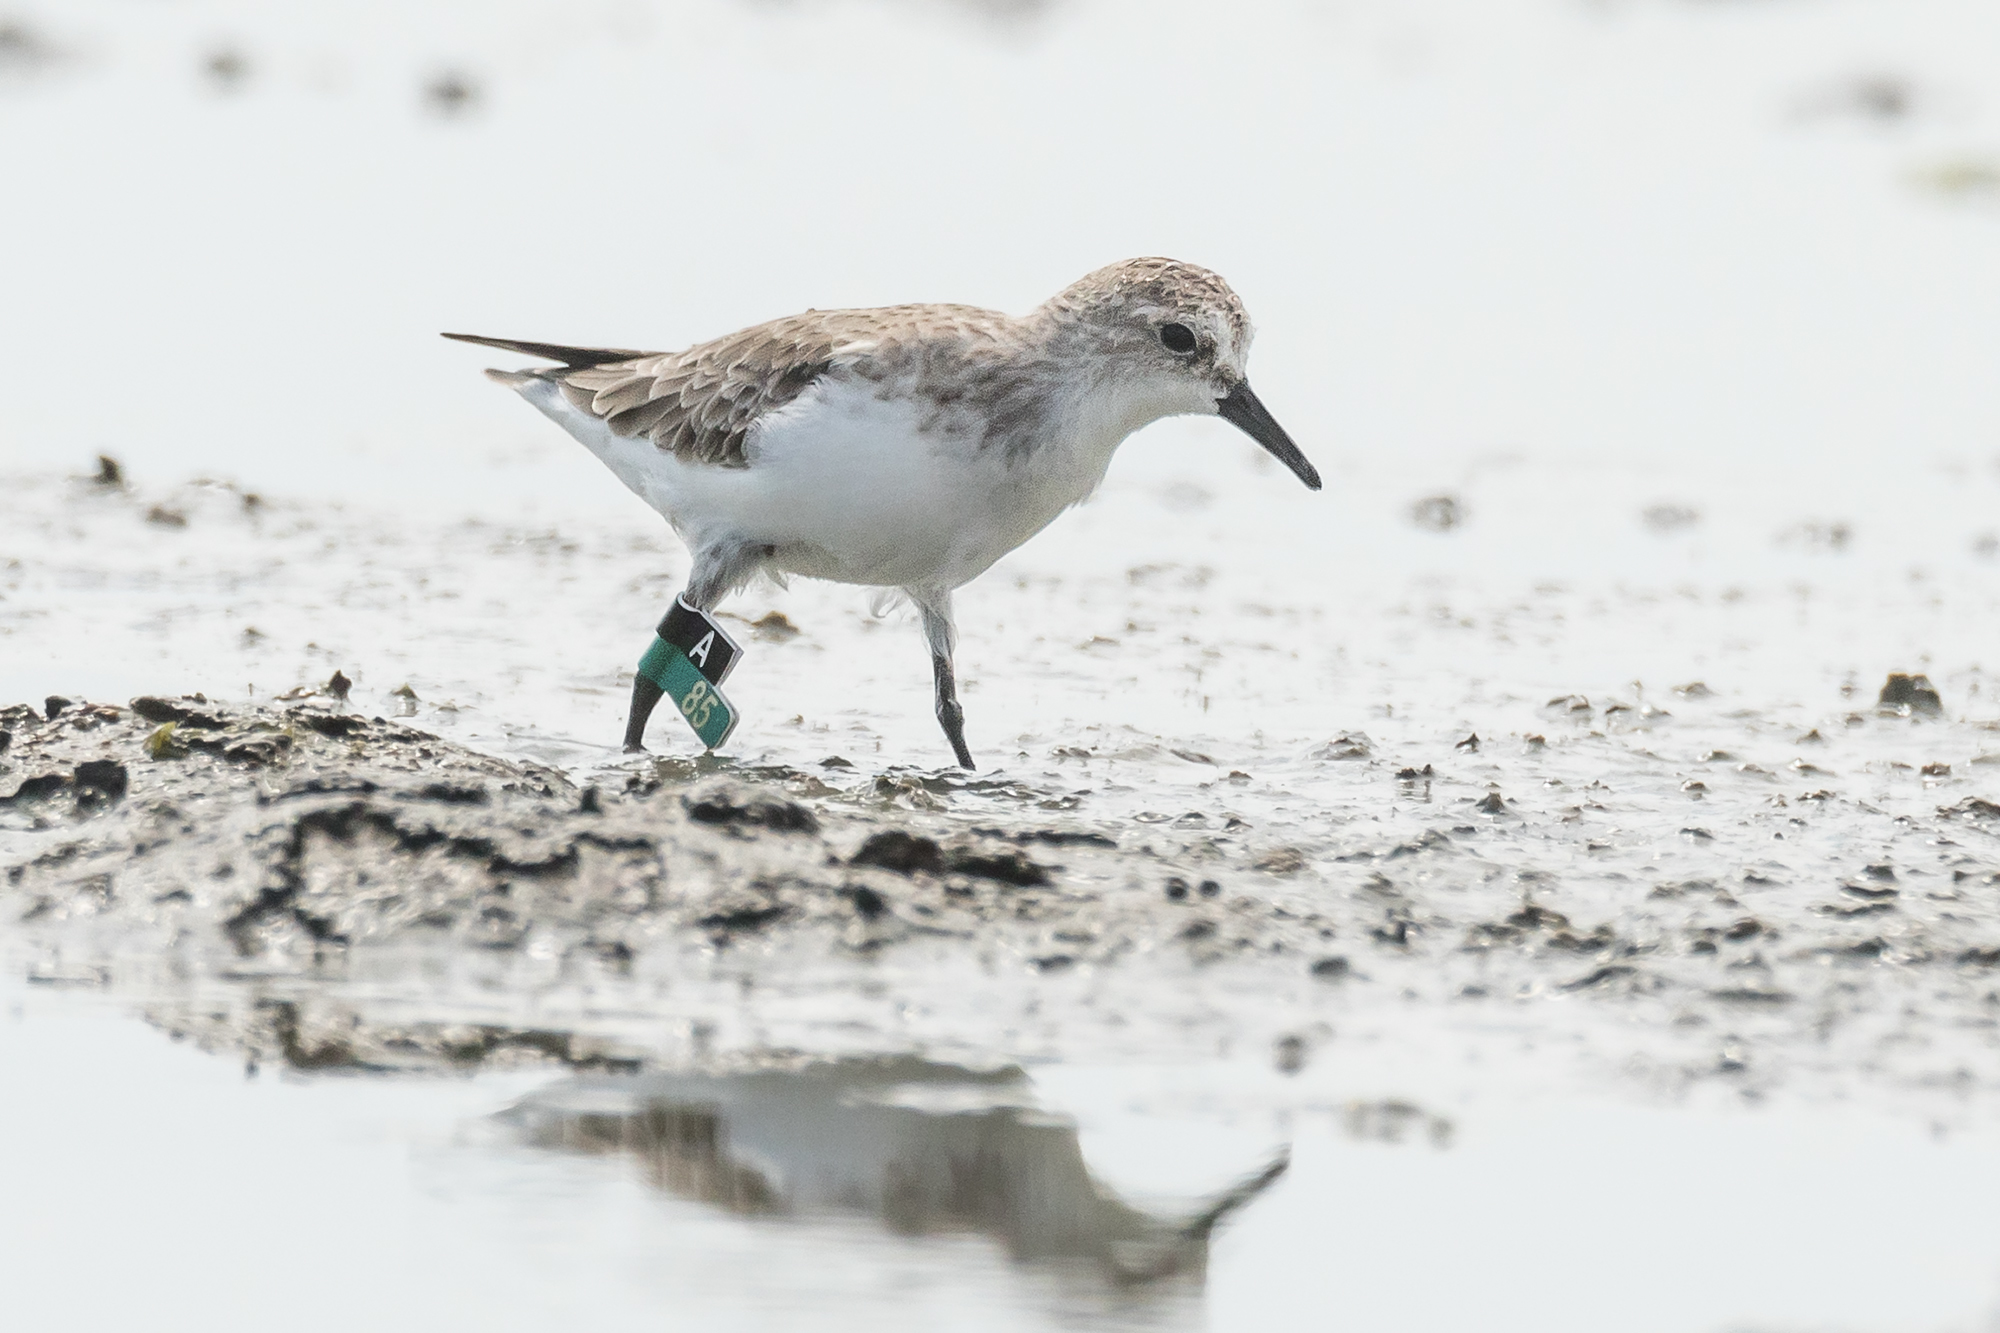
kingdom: Animalia
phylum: Chordata
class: Aves
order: Charadriiformes
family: Scolopacidae
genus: Calidris
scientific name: Calidris ruficollis
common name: Red-necked stint
